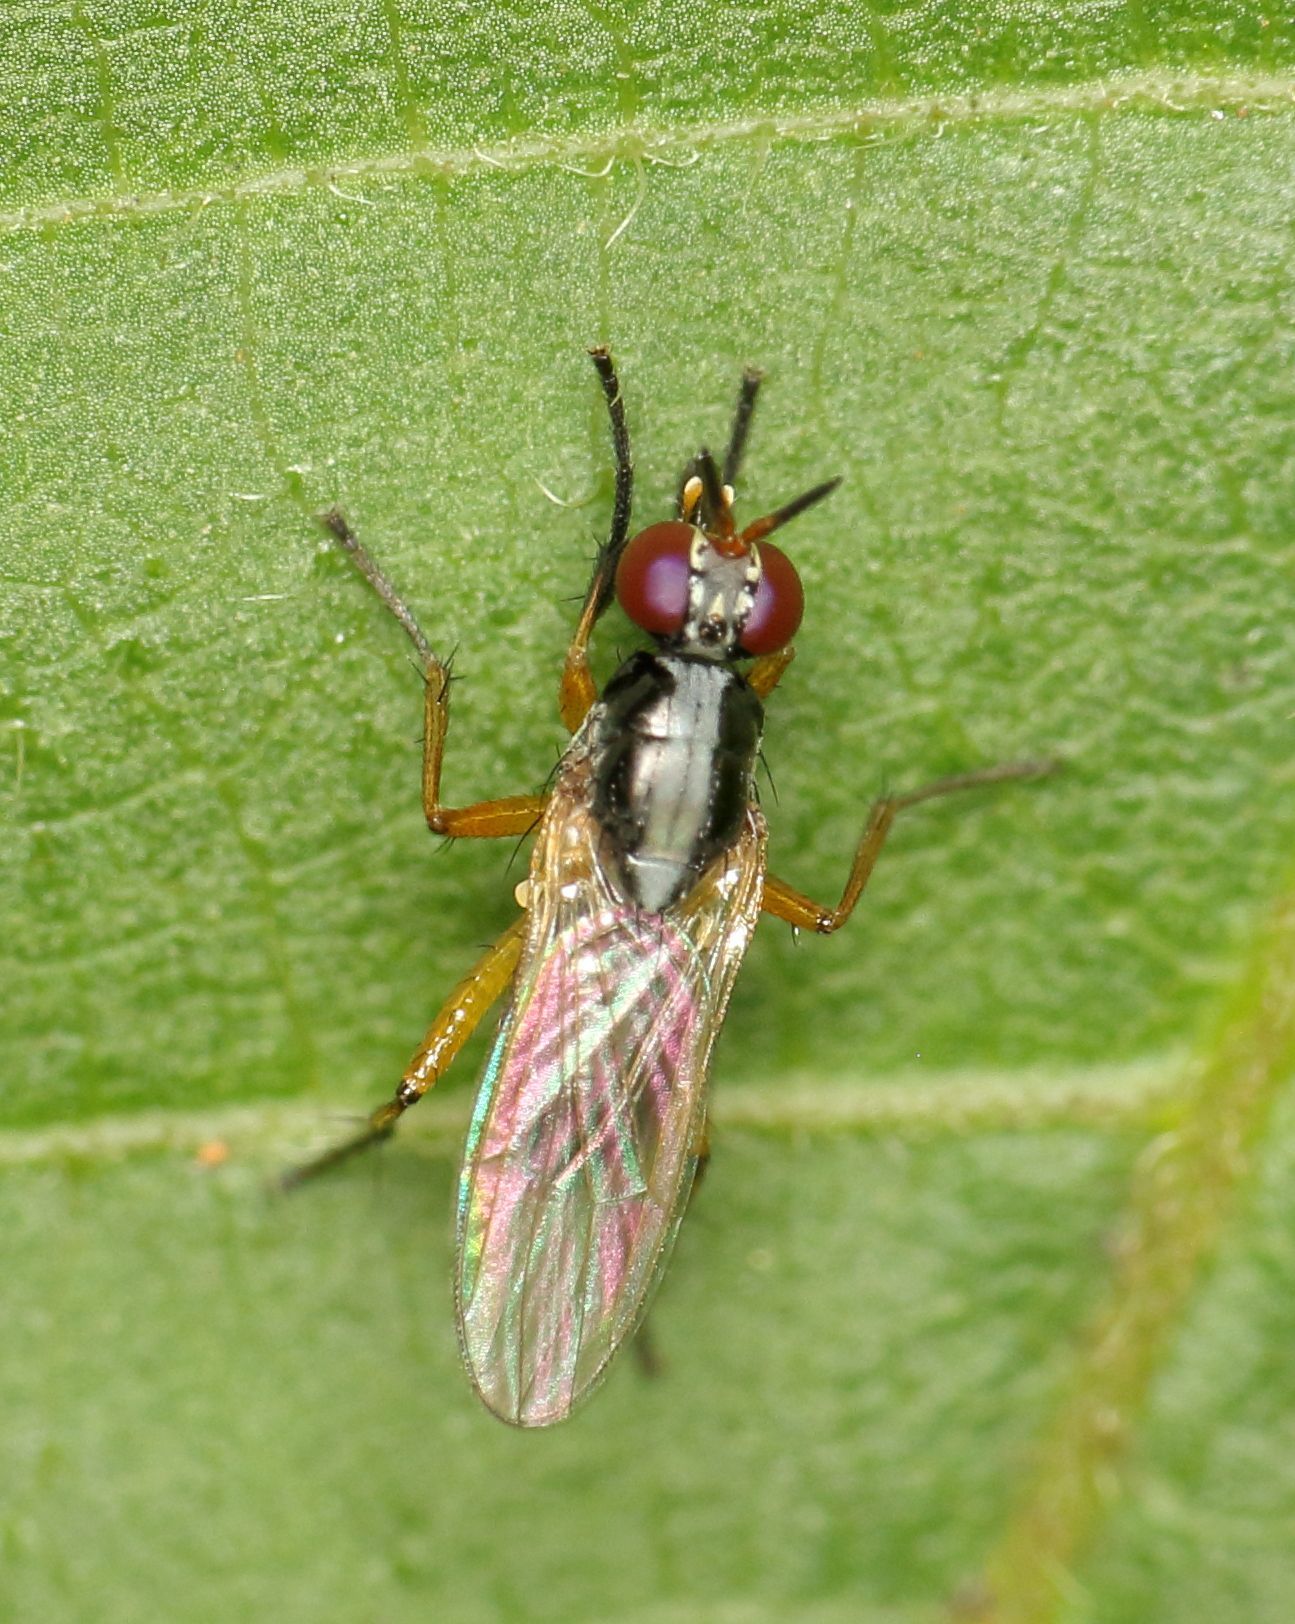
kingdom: Animalia
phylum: Arthropoda
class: Insecta
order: Diptera
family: Muscidae
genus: Anaphalantus
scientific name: Anaphalantus longicornis
